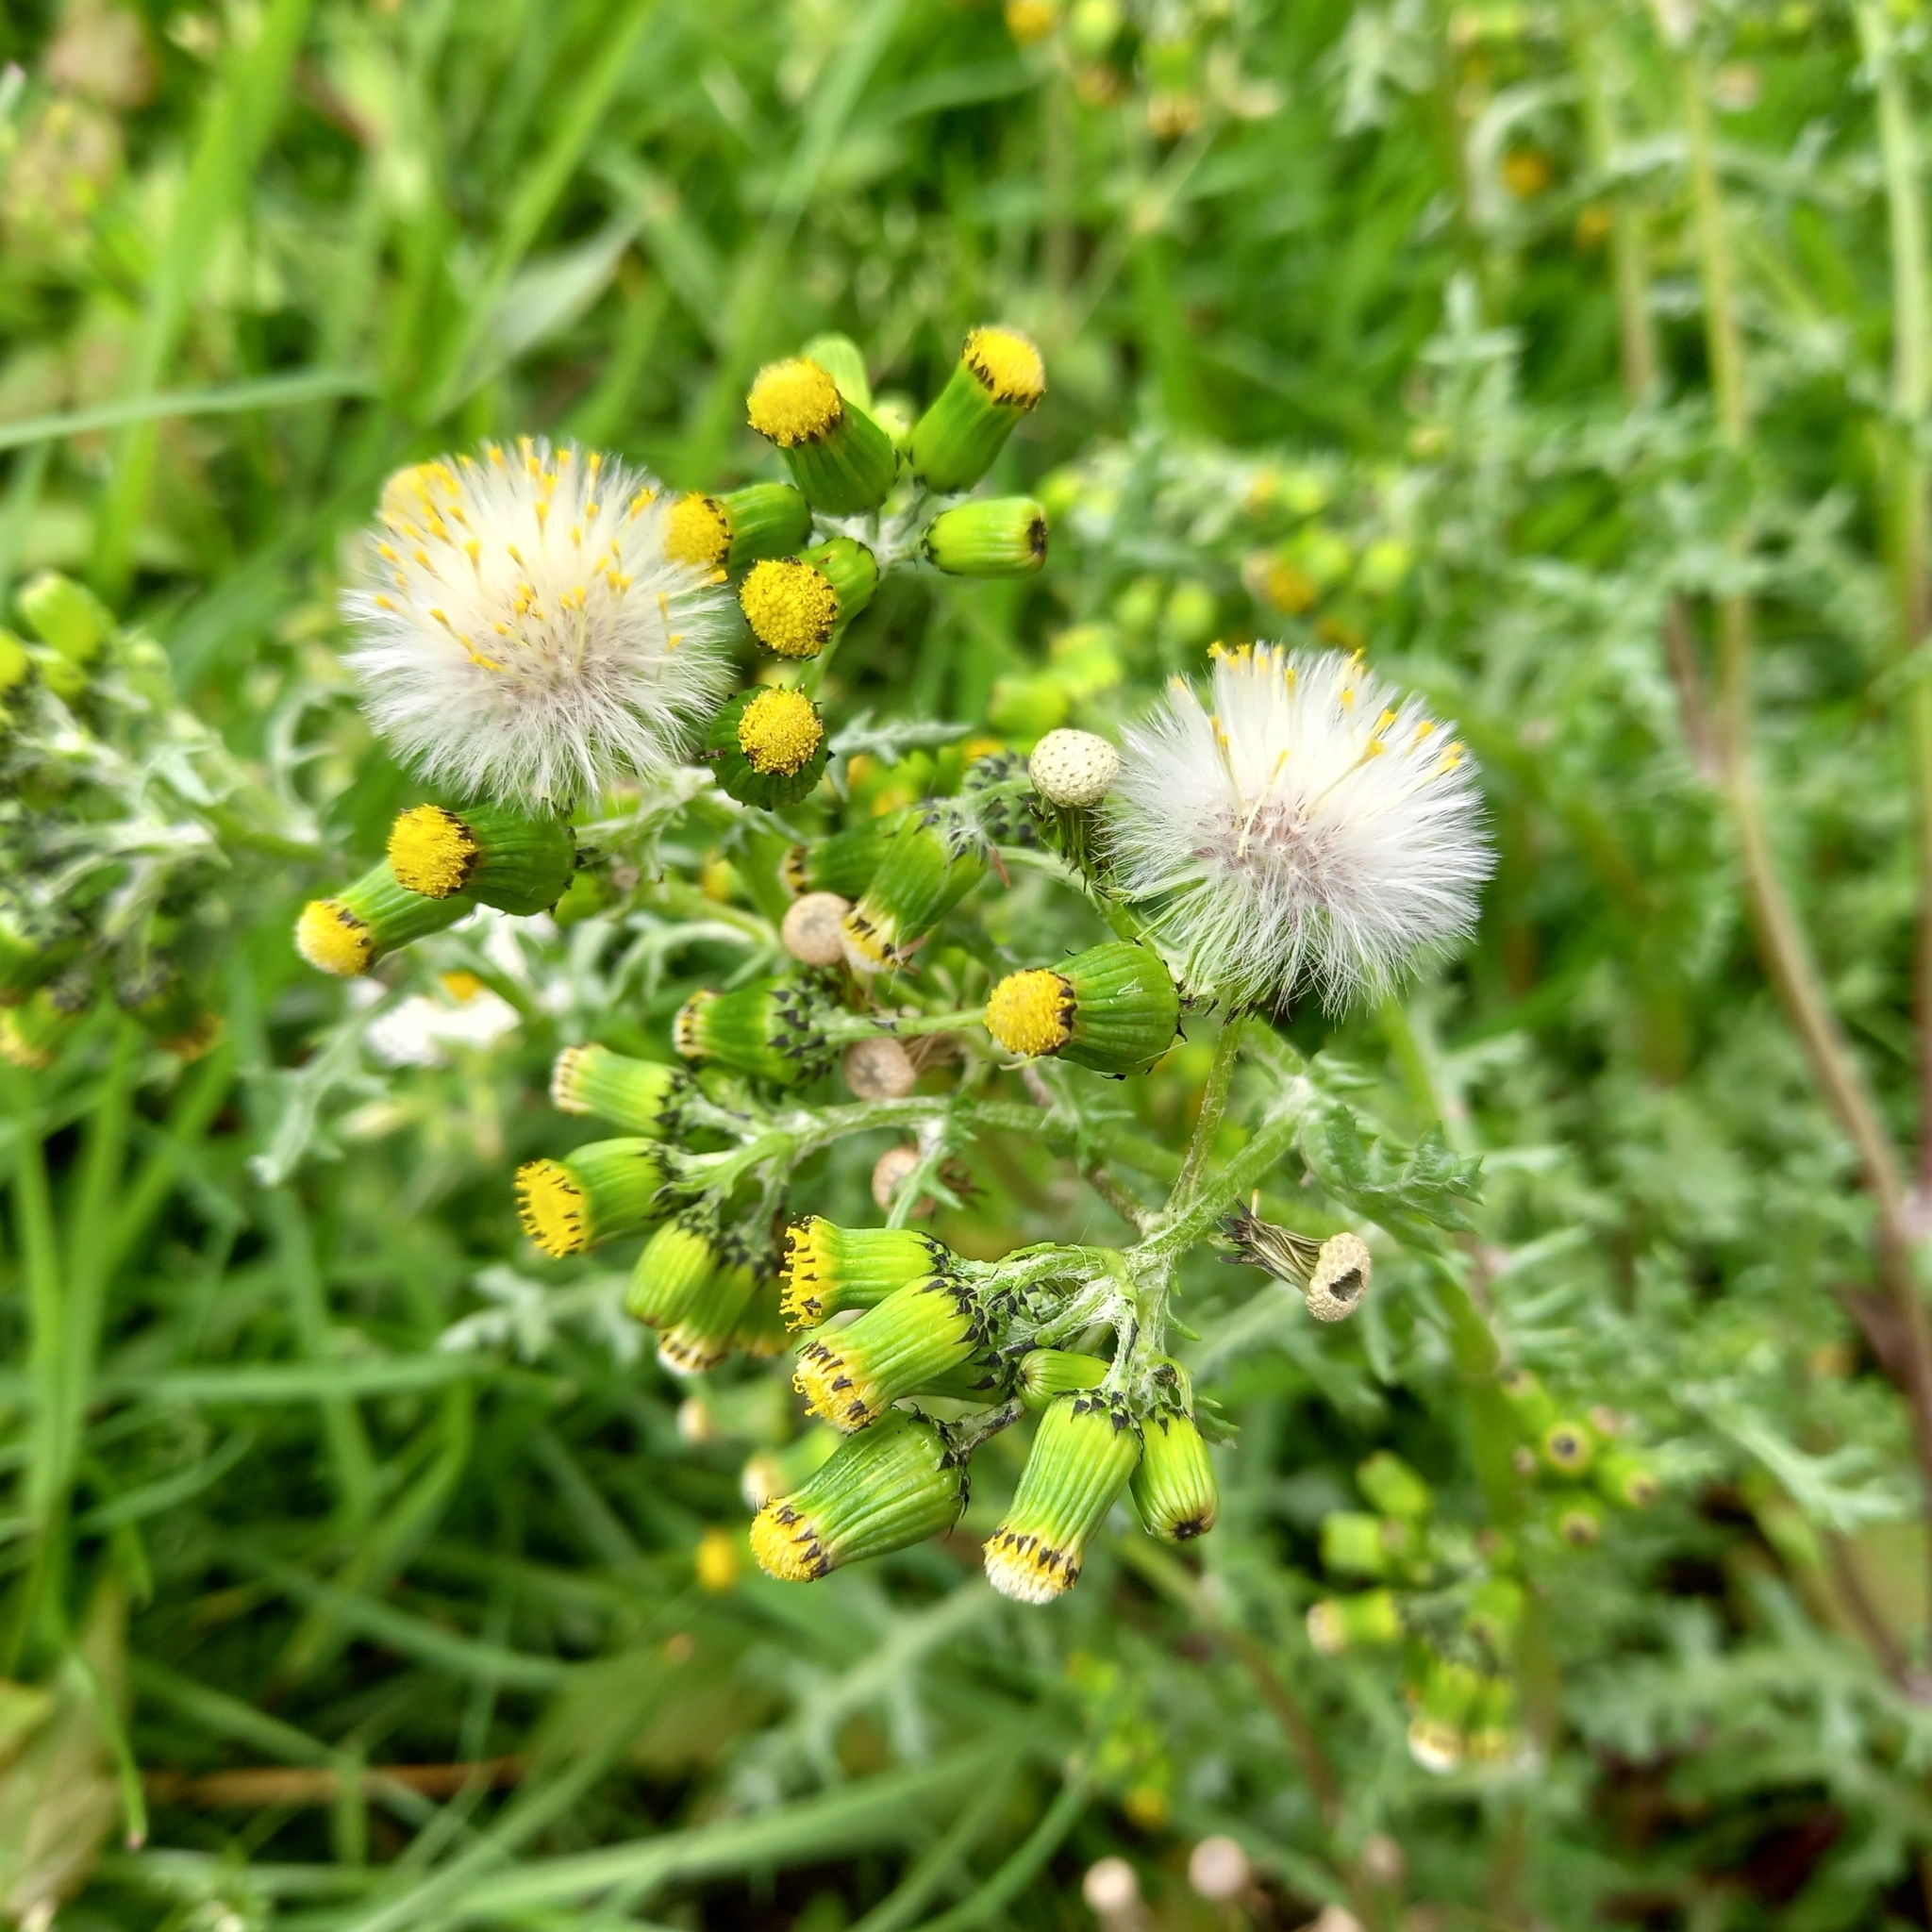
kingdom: Plantae
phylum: Tracheophyta
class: Magnoliopsida
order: Asterales
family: Asteraceae
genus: Senecio
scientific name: Senecio vulgaris
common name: Old-man-in-the-spring
